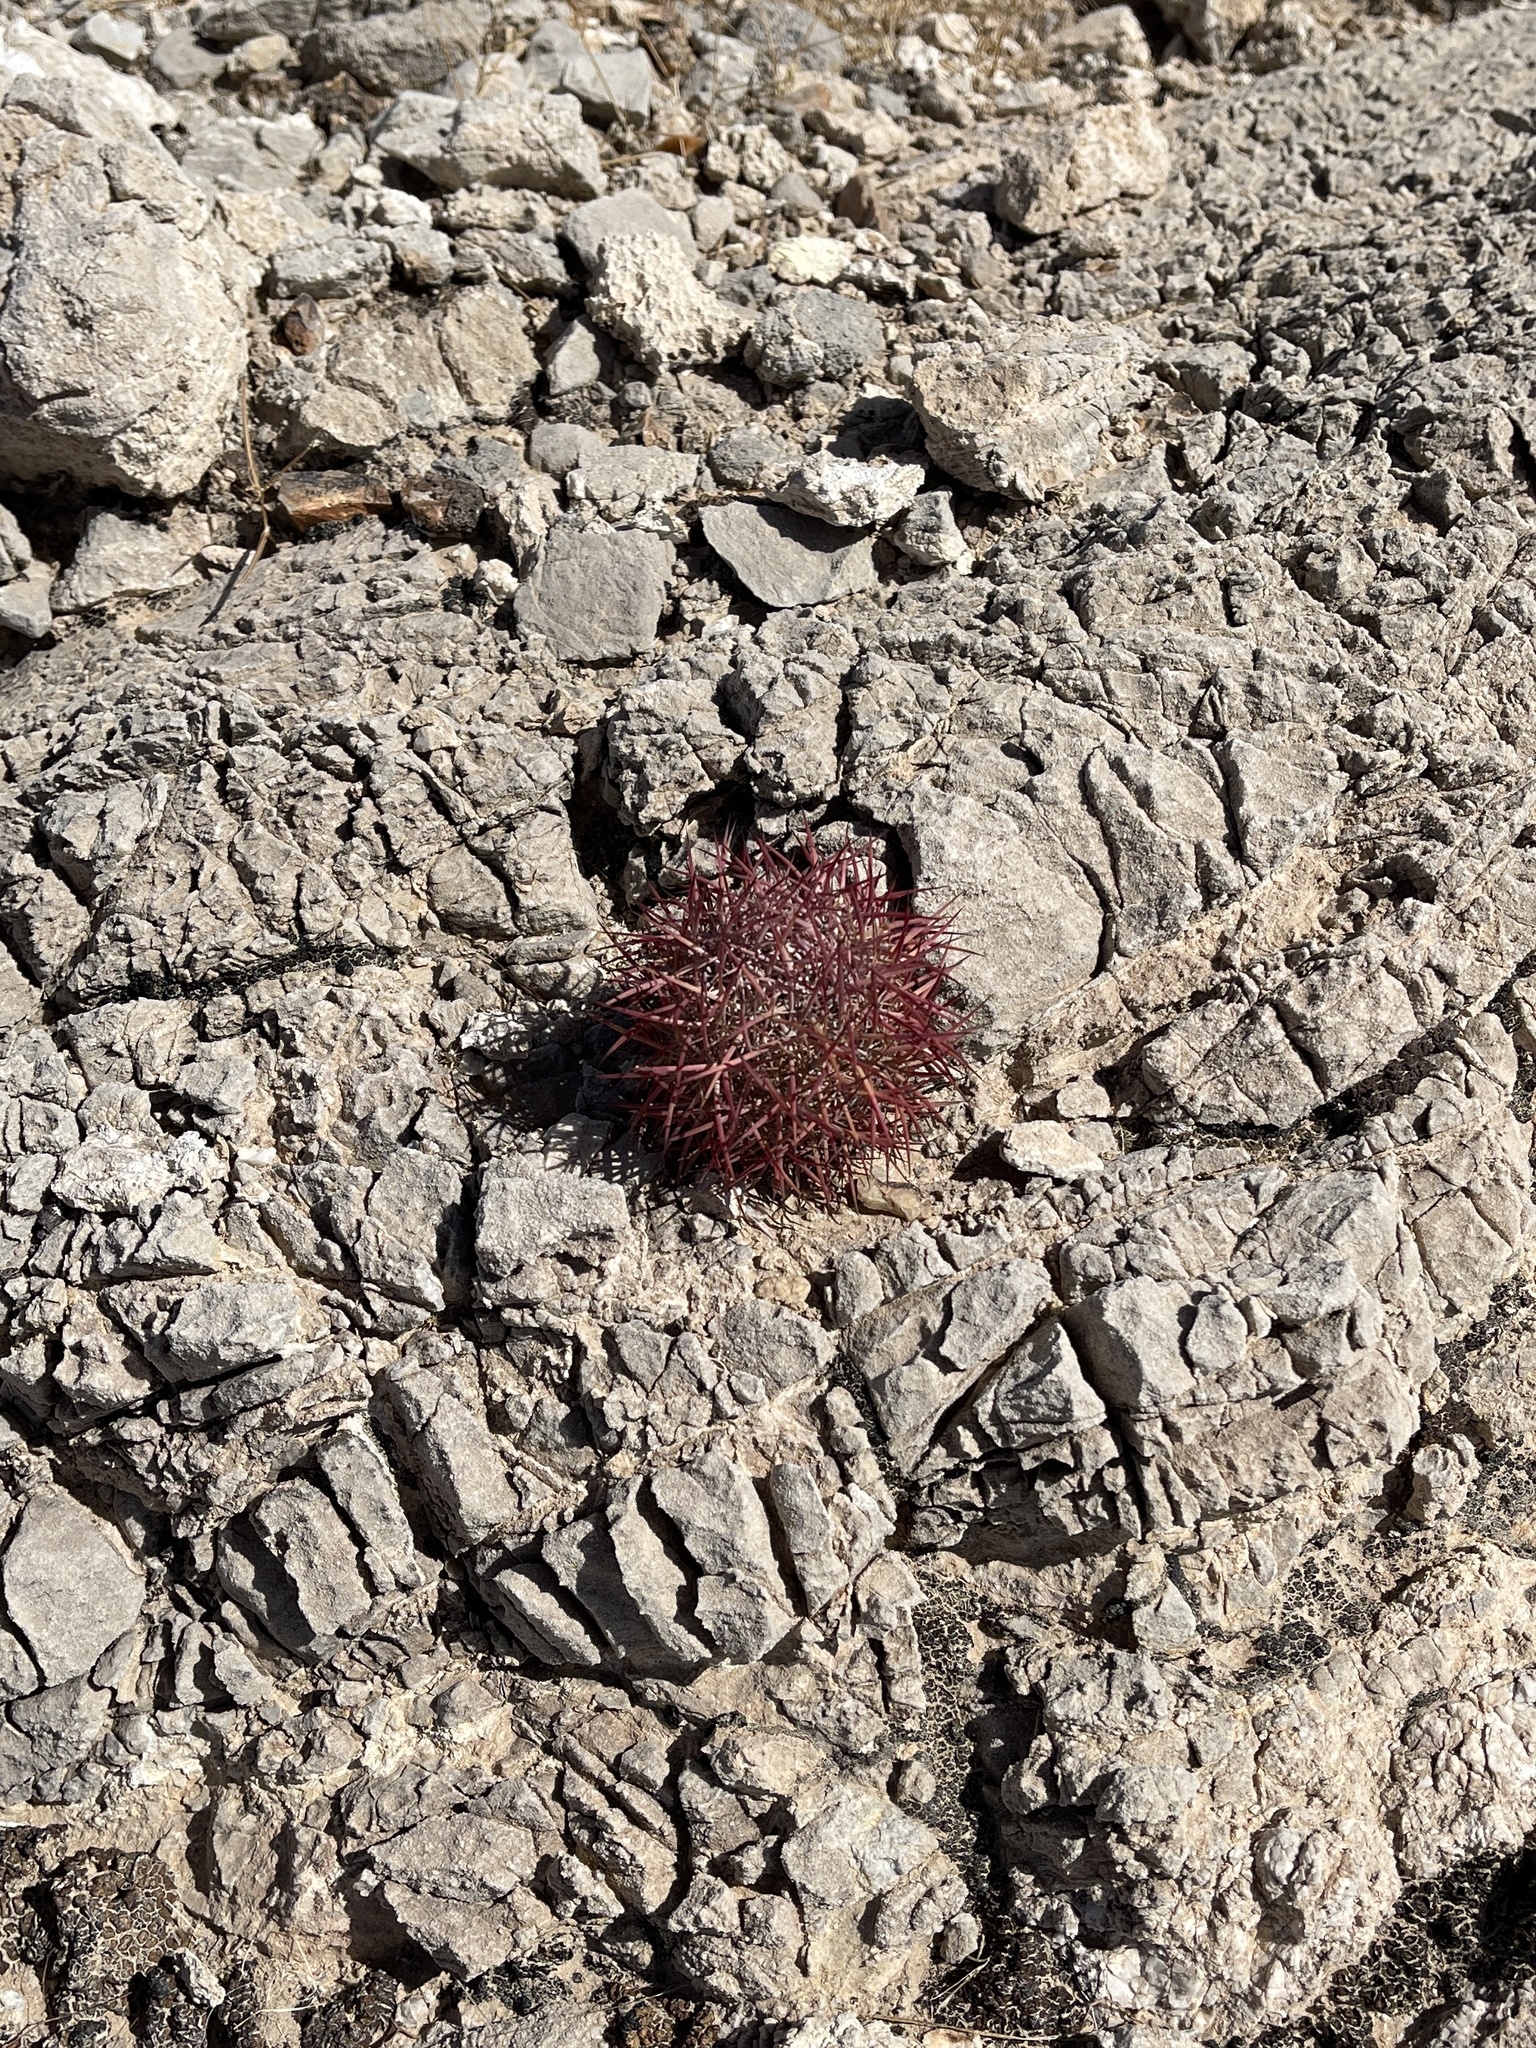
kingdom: Plantae
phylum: Tracheophyta
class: Magnoliopsida
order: Caryophyllales
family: Cactaceae
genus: Sclerocactus
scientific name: Sclerocactus johnsonii
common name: Eight-spine fishhook cactus
